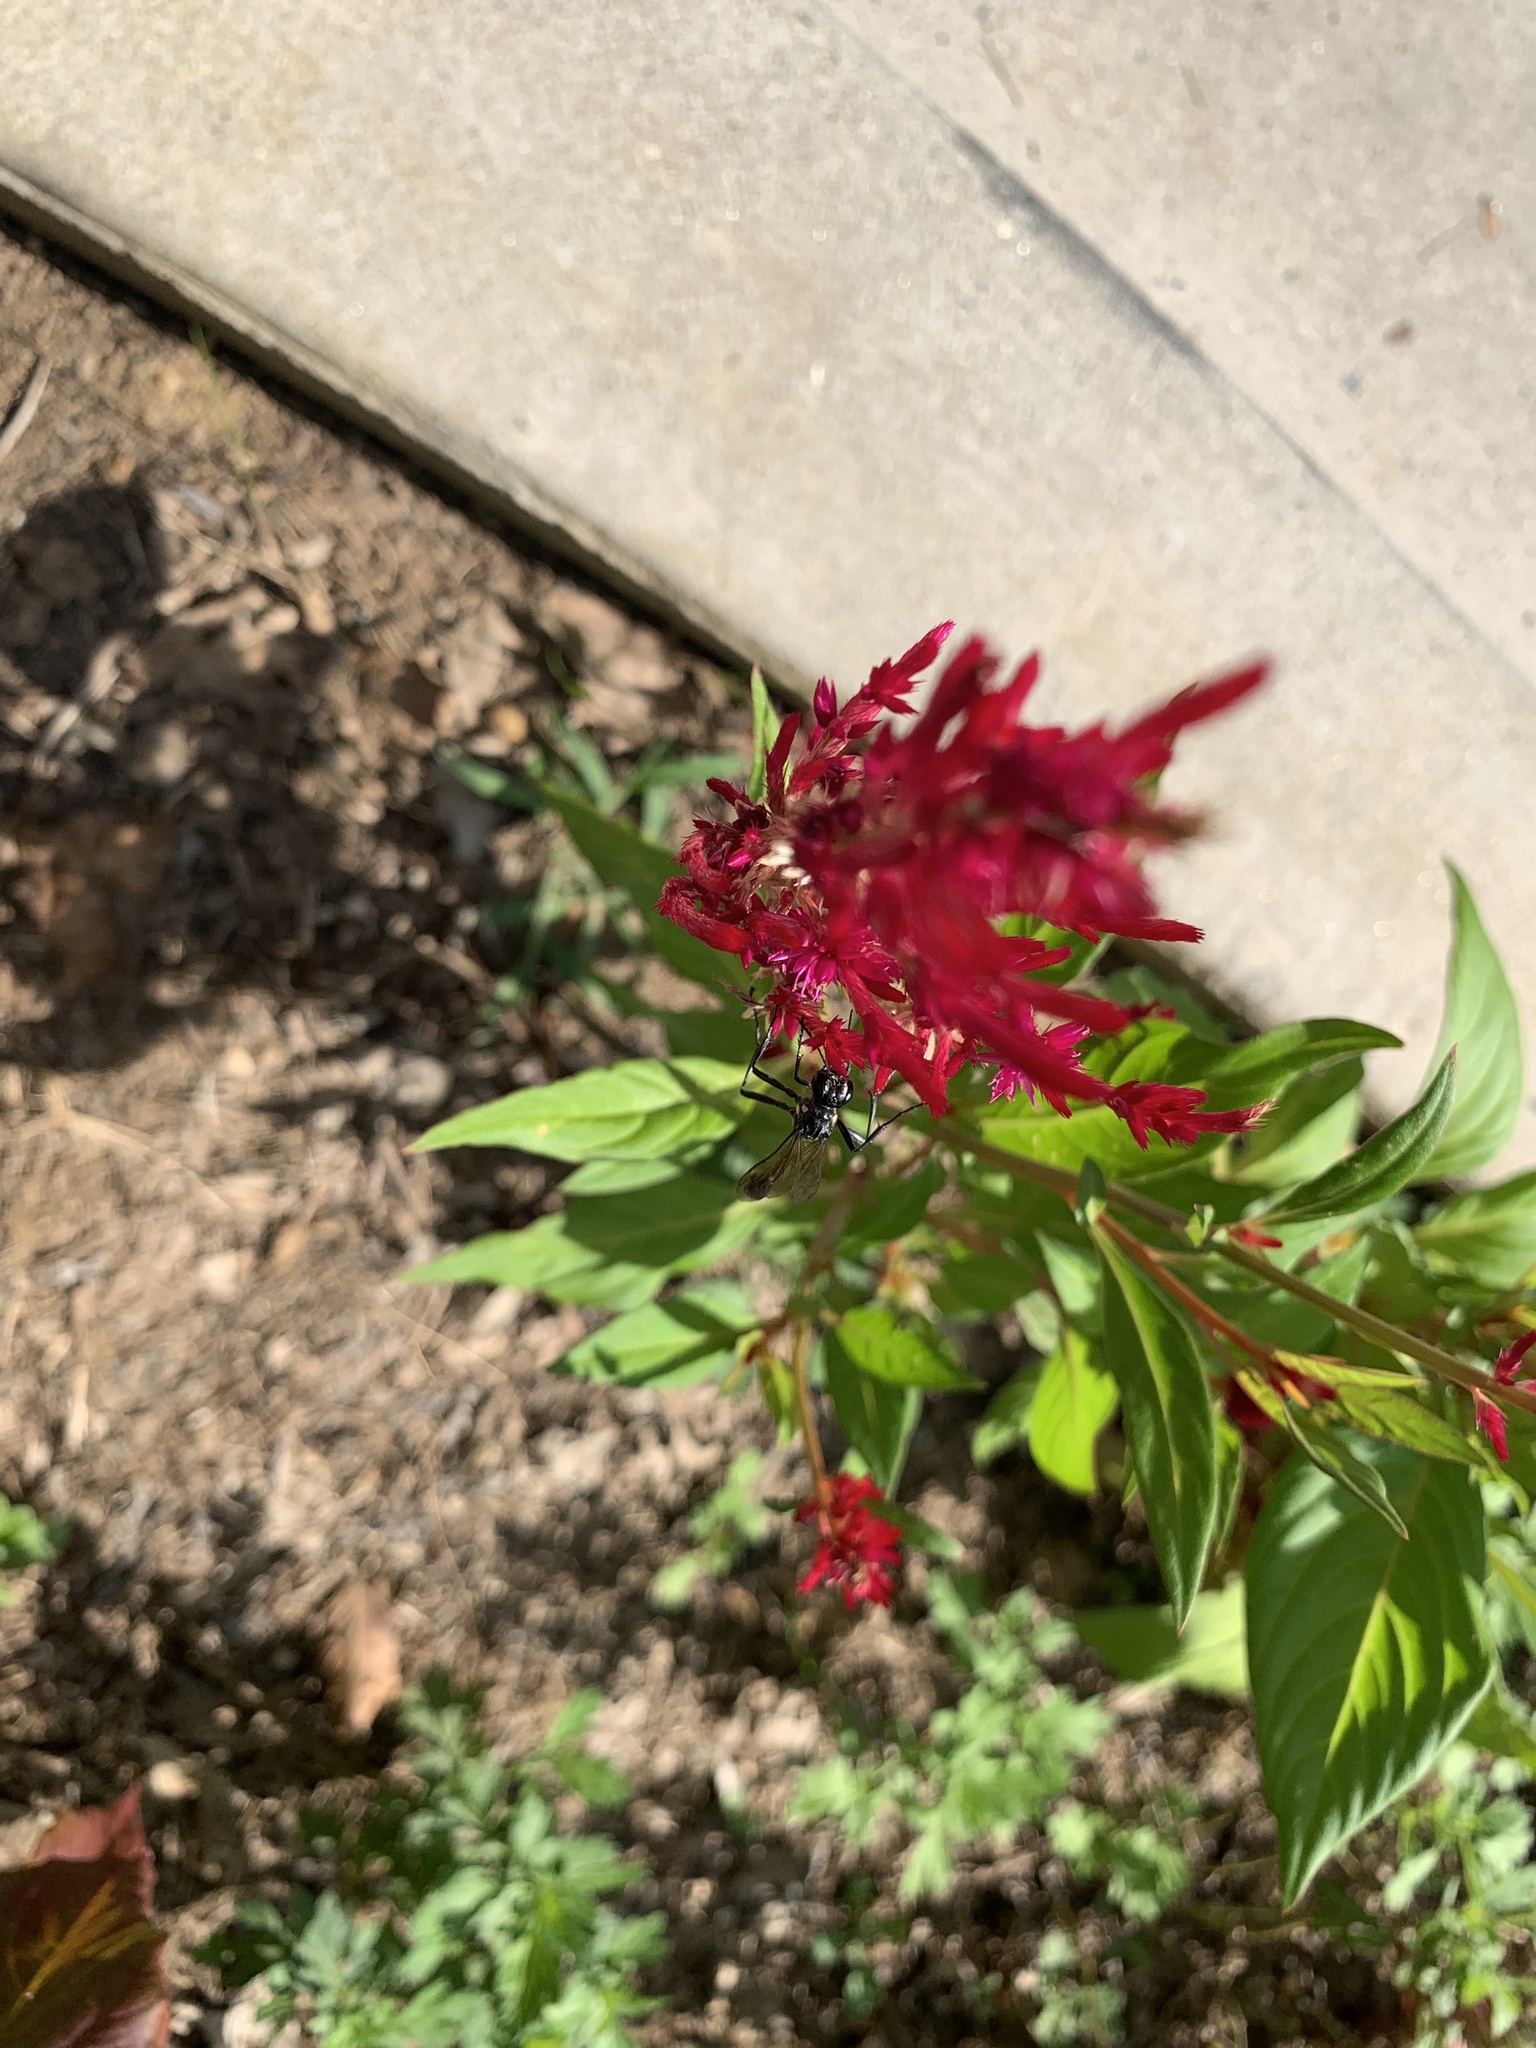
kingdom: Animalia
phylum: Arthropoda
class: Insecta
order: Hymenoptera
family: Sphecidae
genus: Eremnophila
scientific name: Eremnophila aureonotata
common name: Gold-marked thread-waisted wasp
